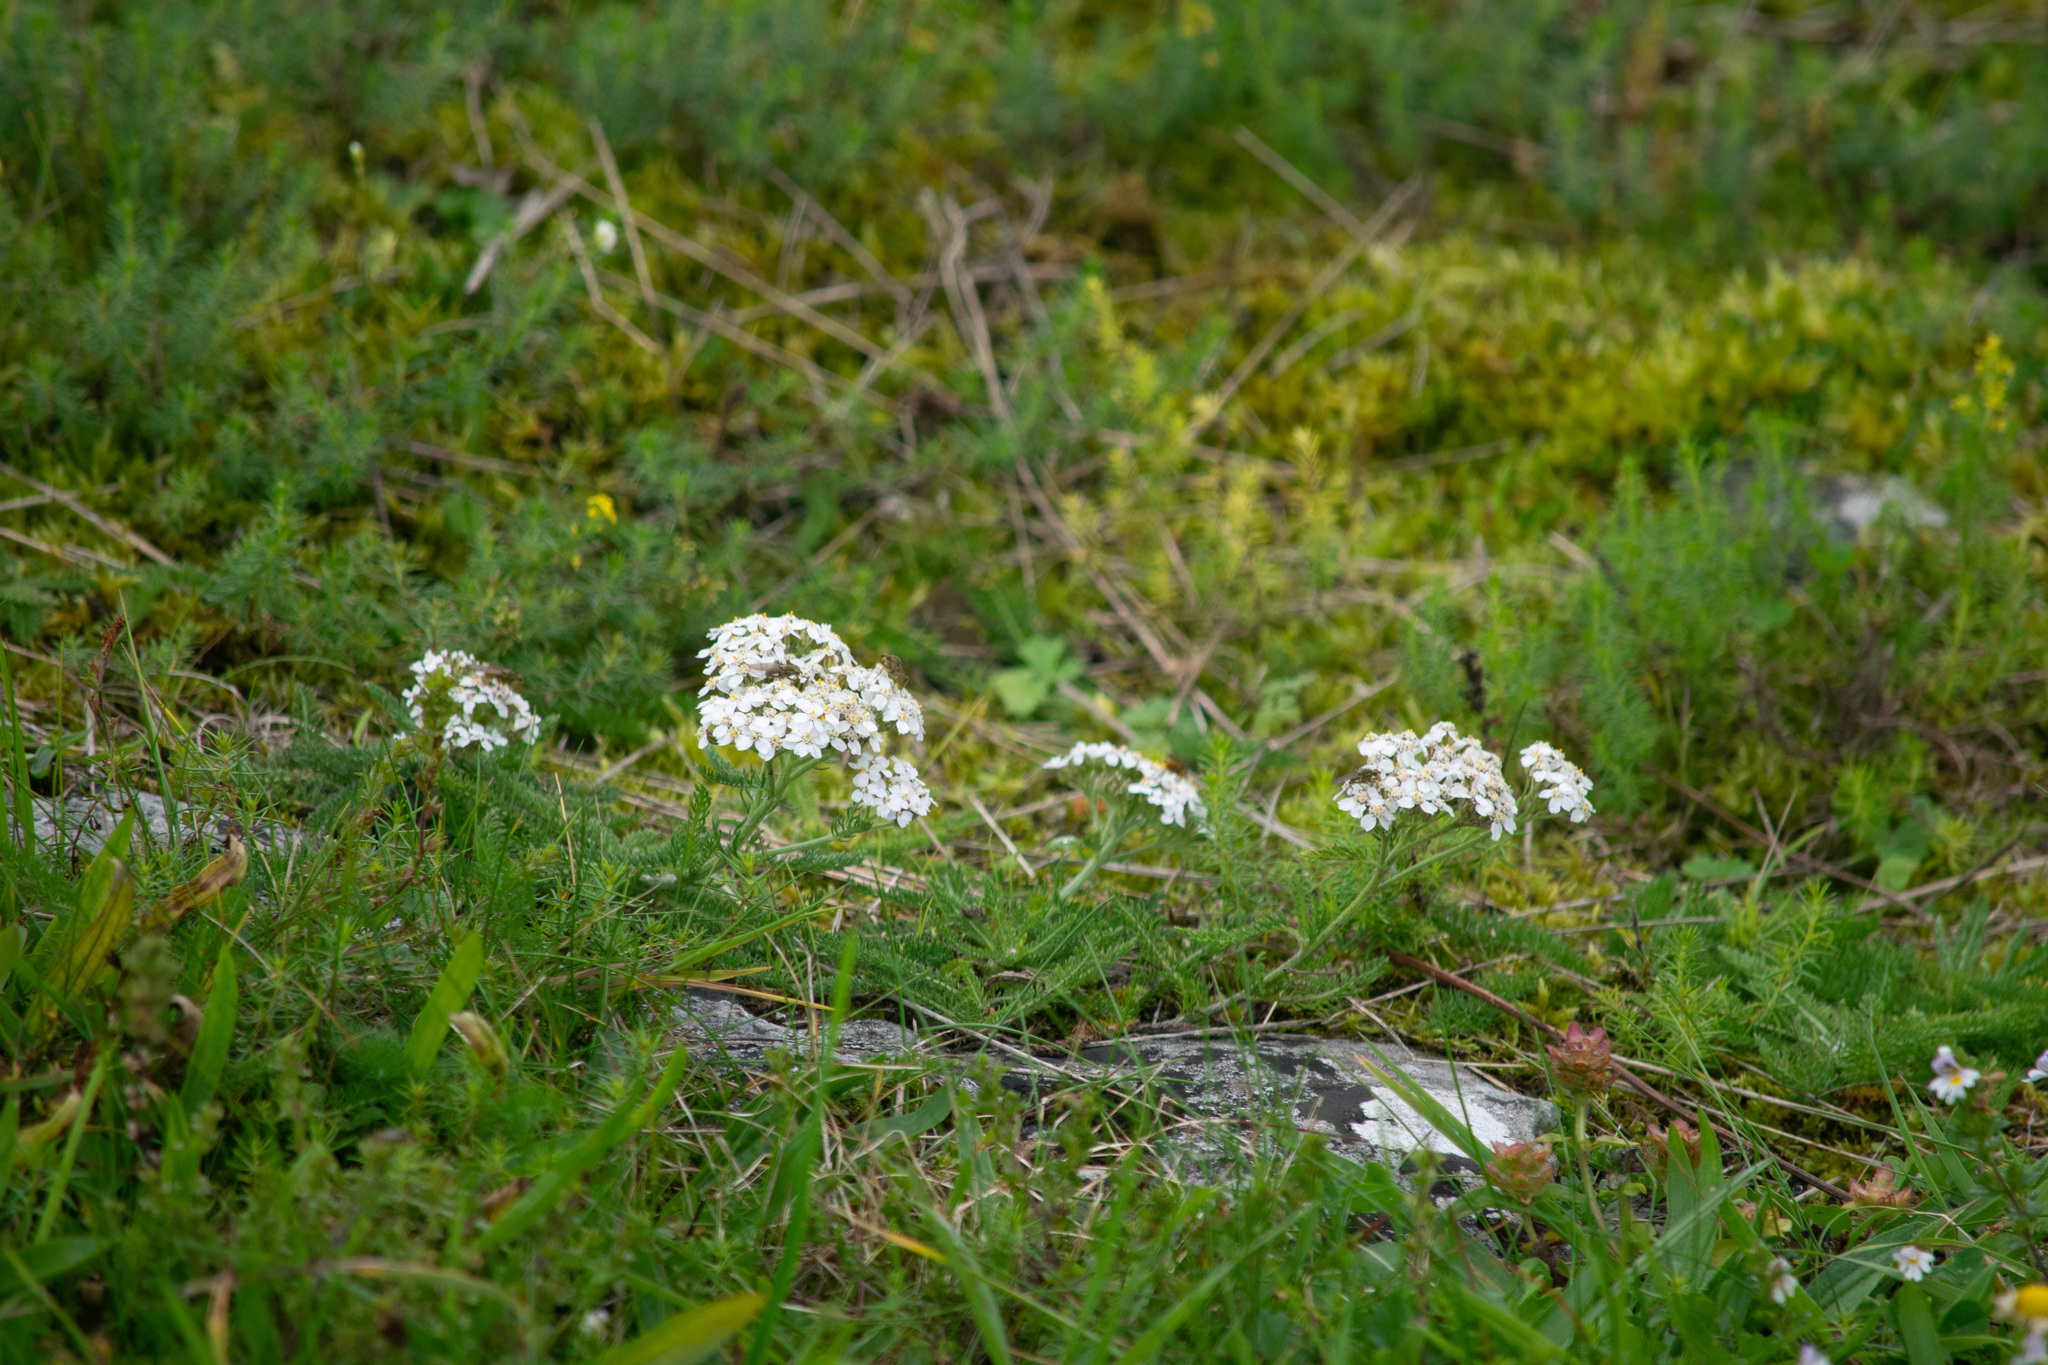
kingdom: Plantae
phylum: Tracheophyta
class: Magnoliopsida
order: Asterales
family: Asteraceae
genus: Achillea
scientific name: Achillea millefolium
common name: Yarrow
